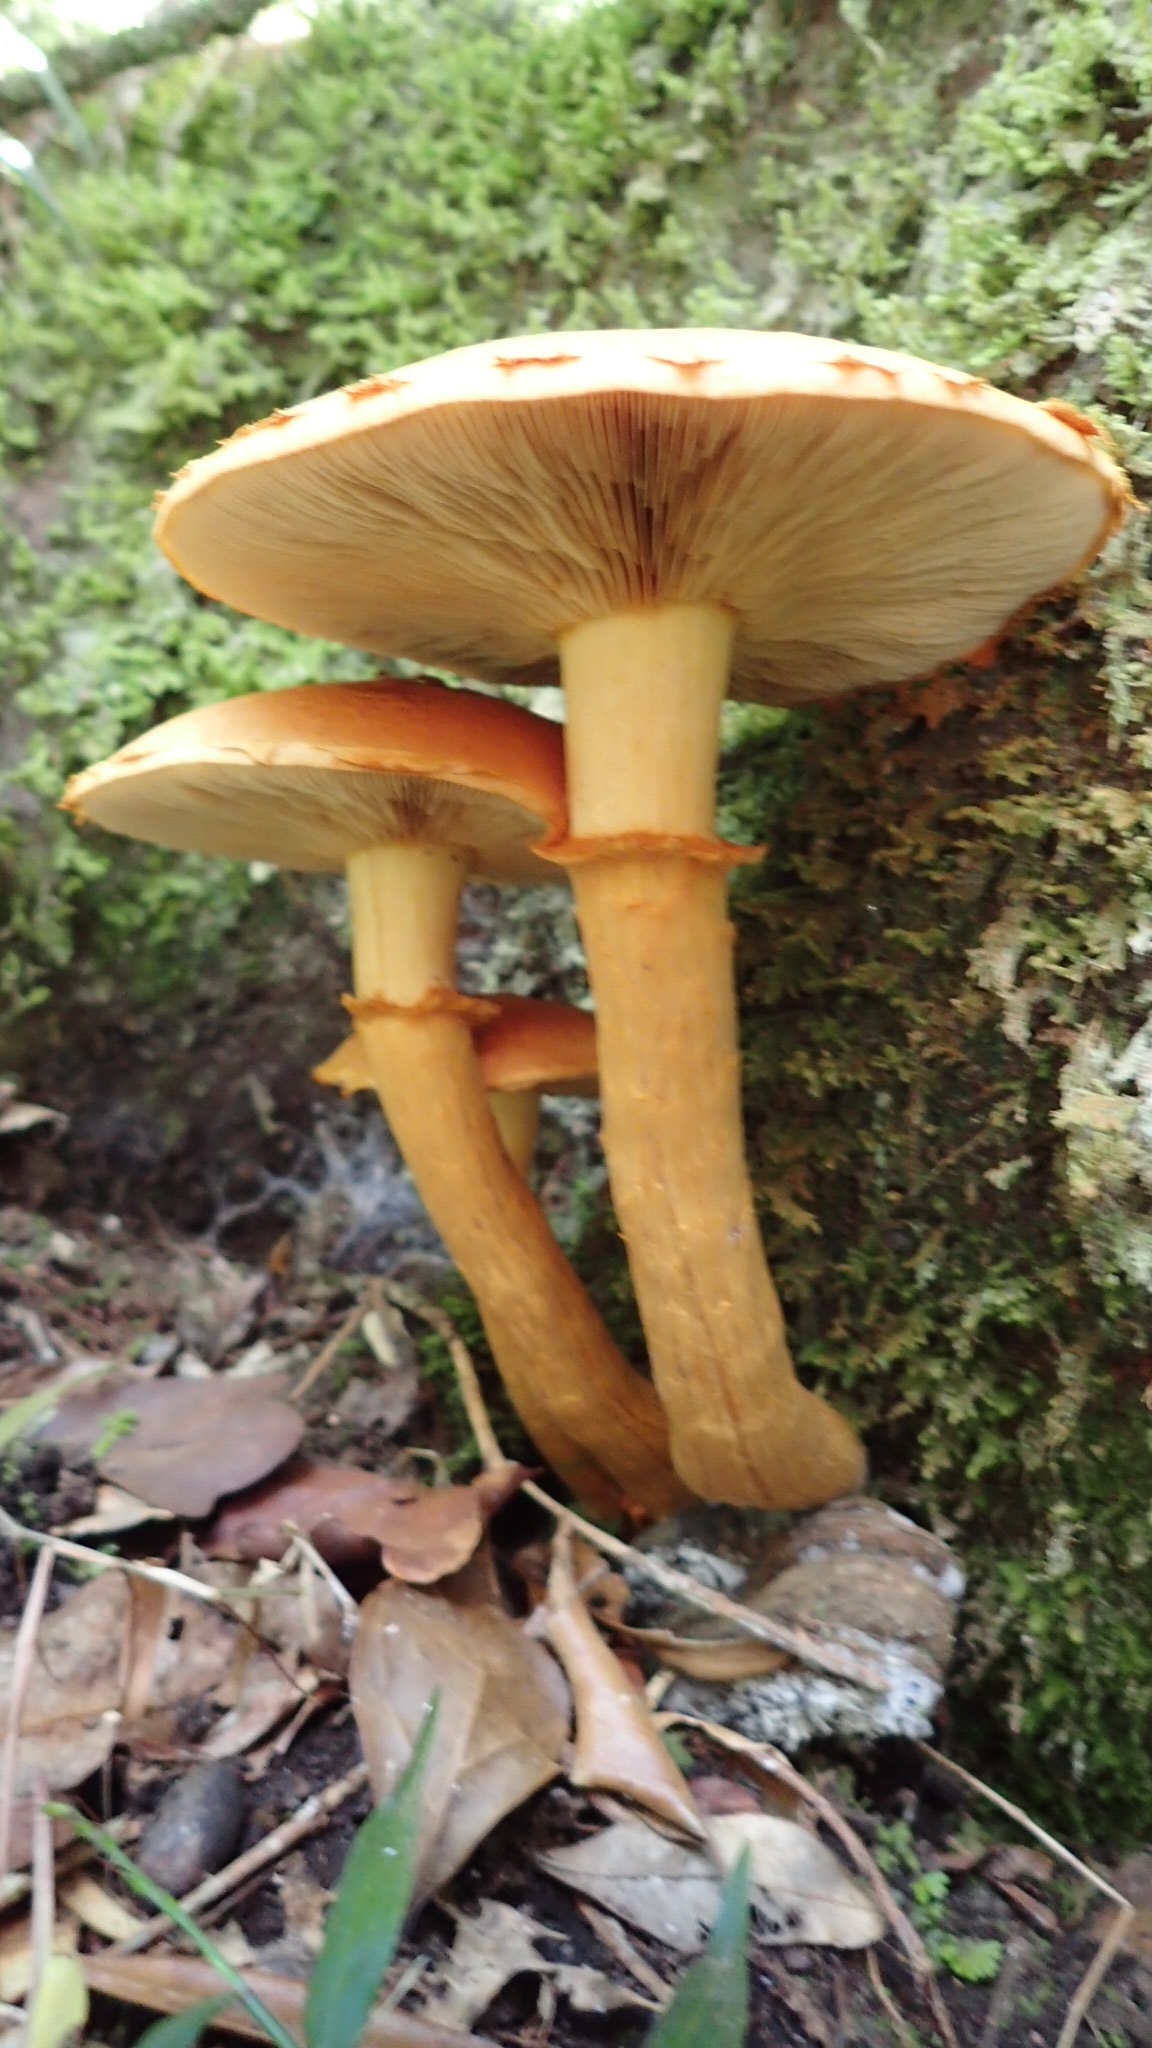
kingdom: Fungi
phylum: Basidiomycota
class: Agaricomycetes
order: Agaricales
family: Hymenogastraceae
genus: Gymnopilus
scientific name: Gymnopilus junonius
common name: Spectacular rustgill
